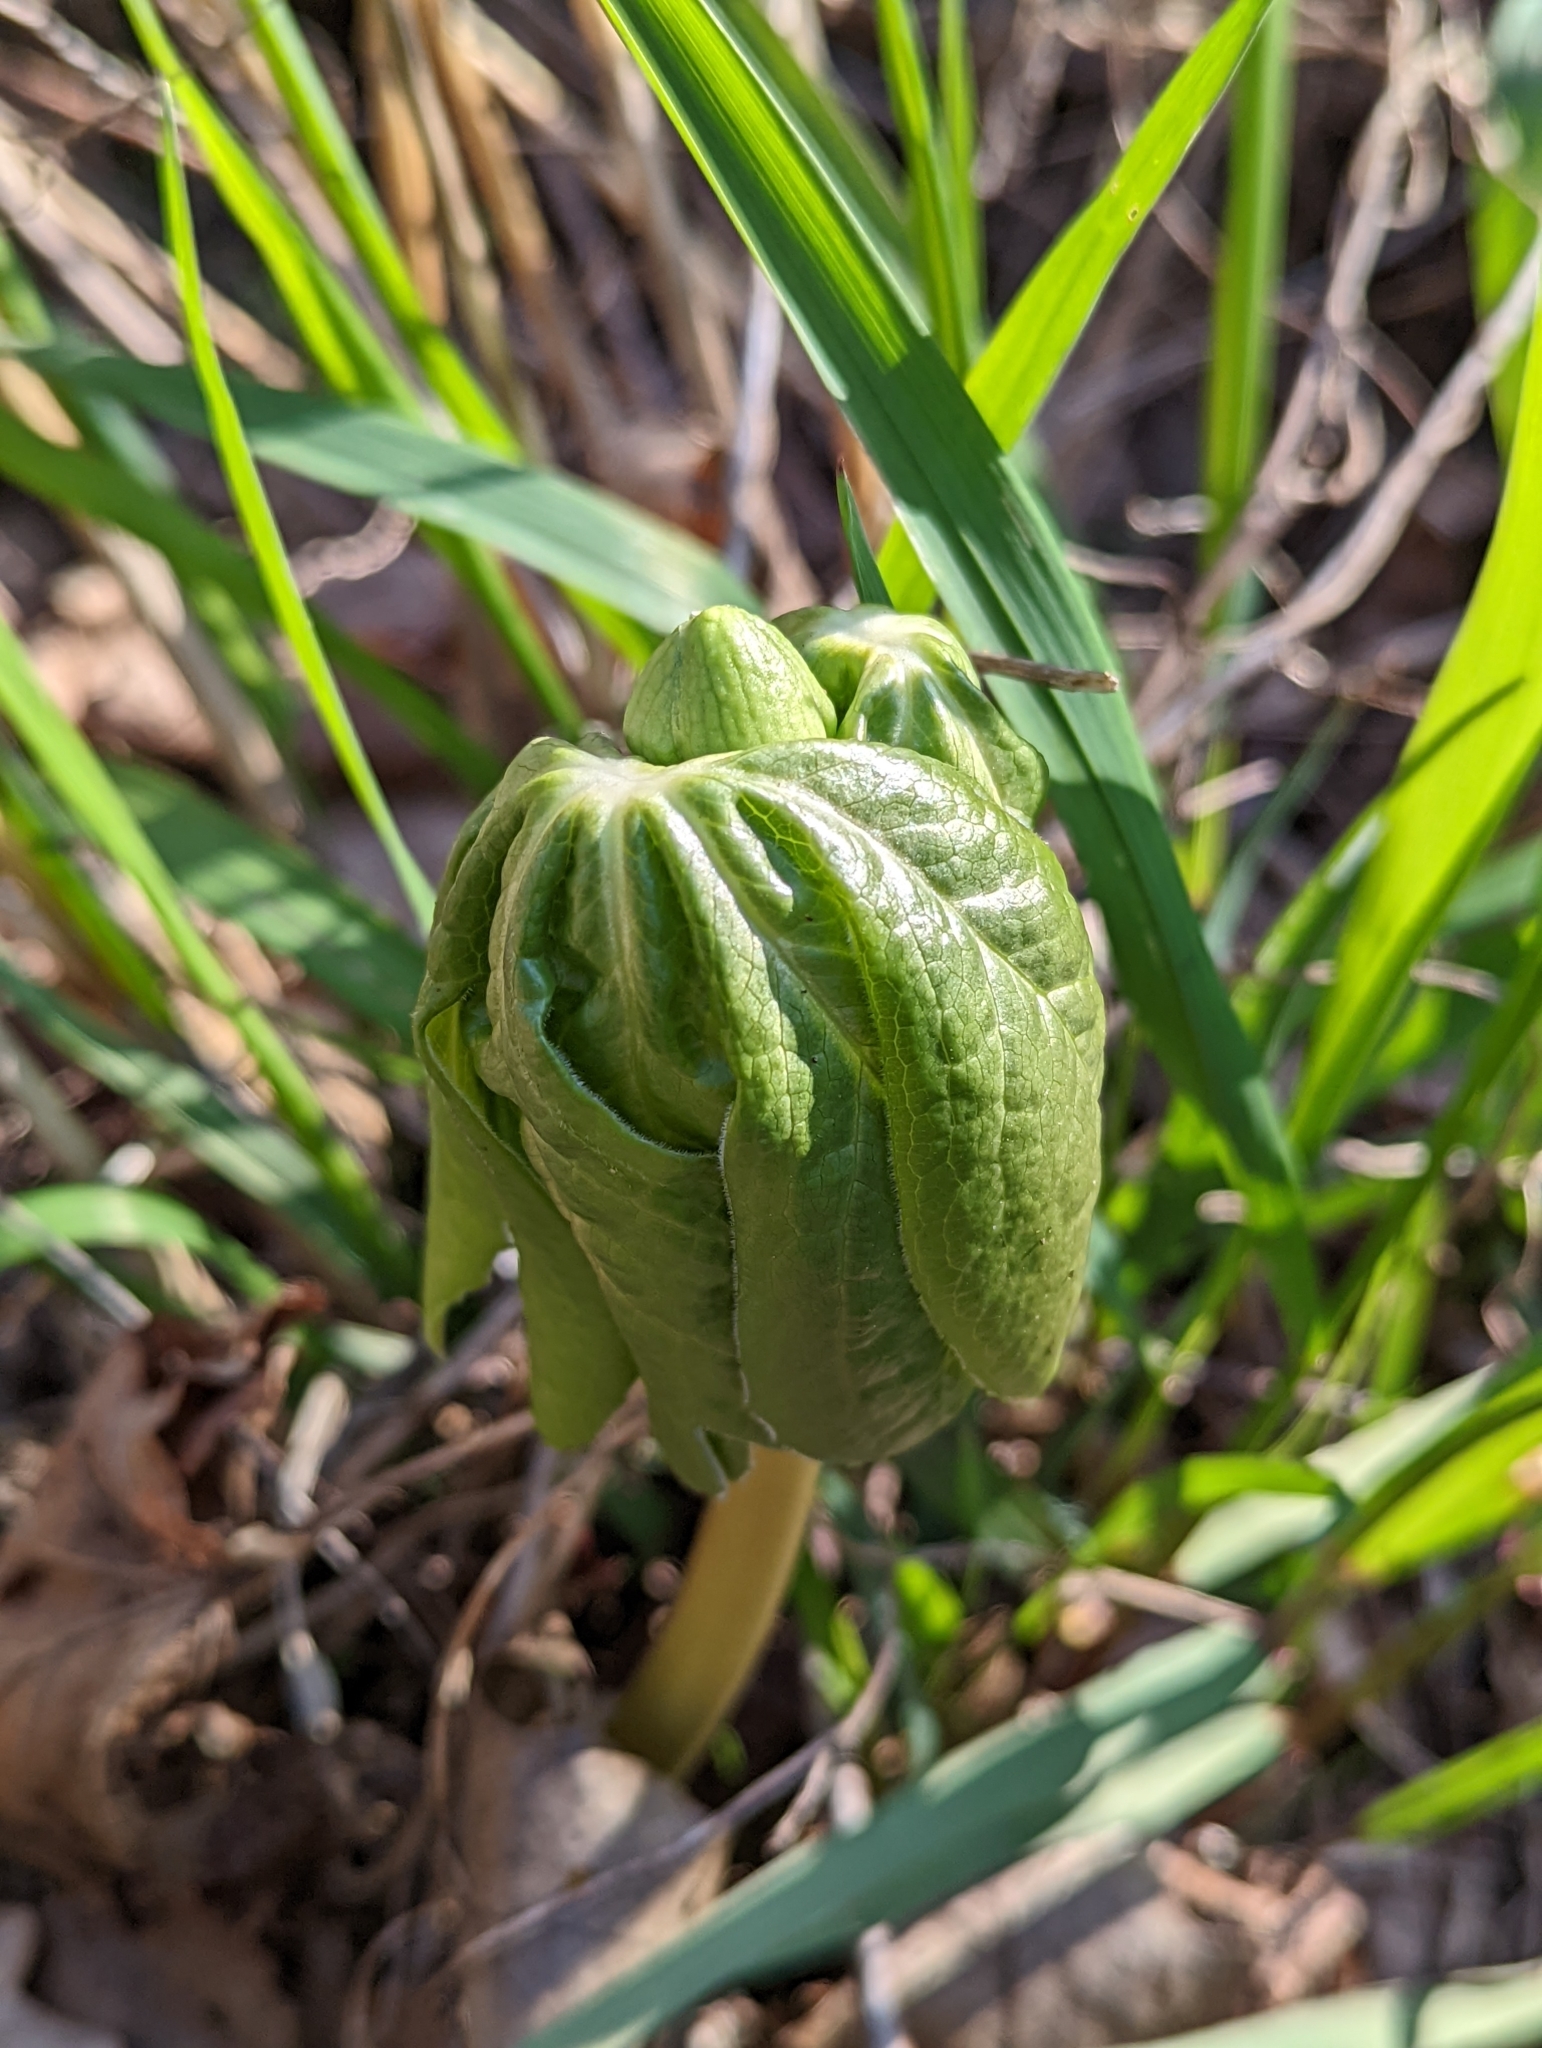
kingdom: Plantae
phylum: Tracheophyta
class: Magnoliopsida
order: Ranunculales
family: Berberidaceae
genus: Podophyllum
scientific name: Podophyllum peltatum
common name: Wild mandrake
